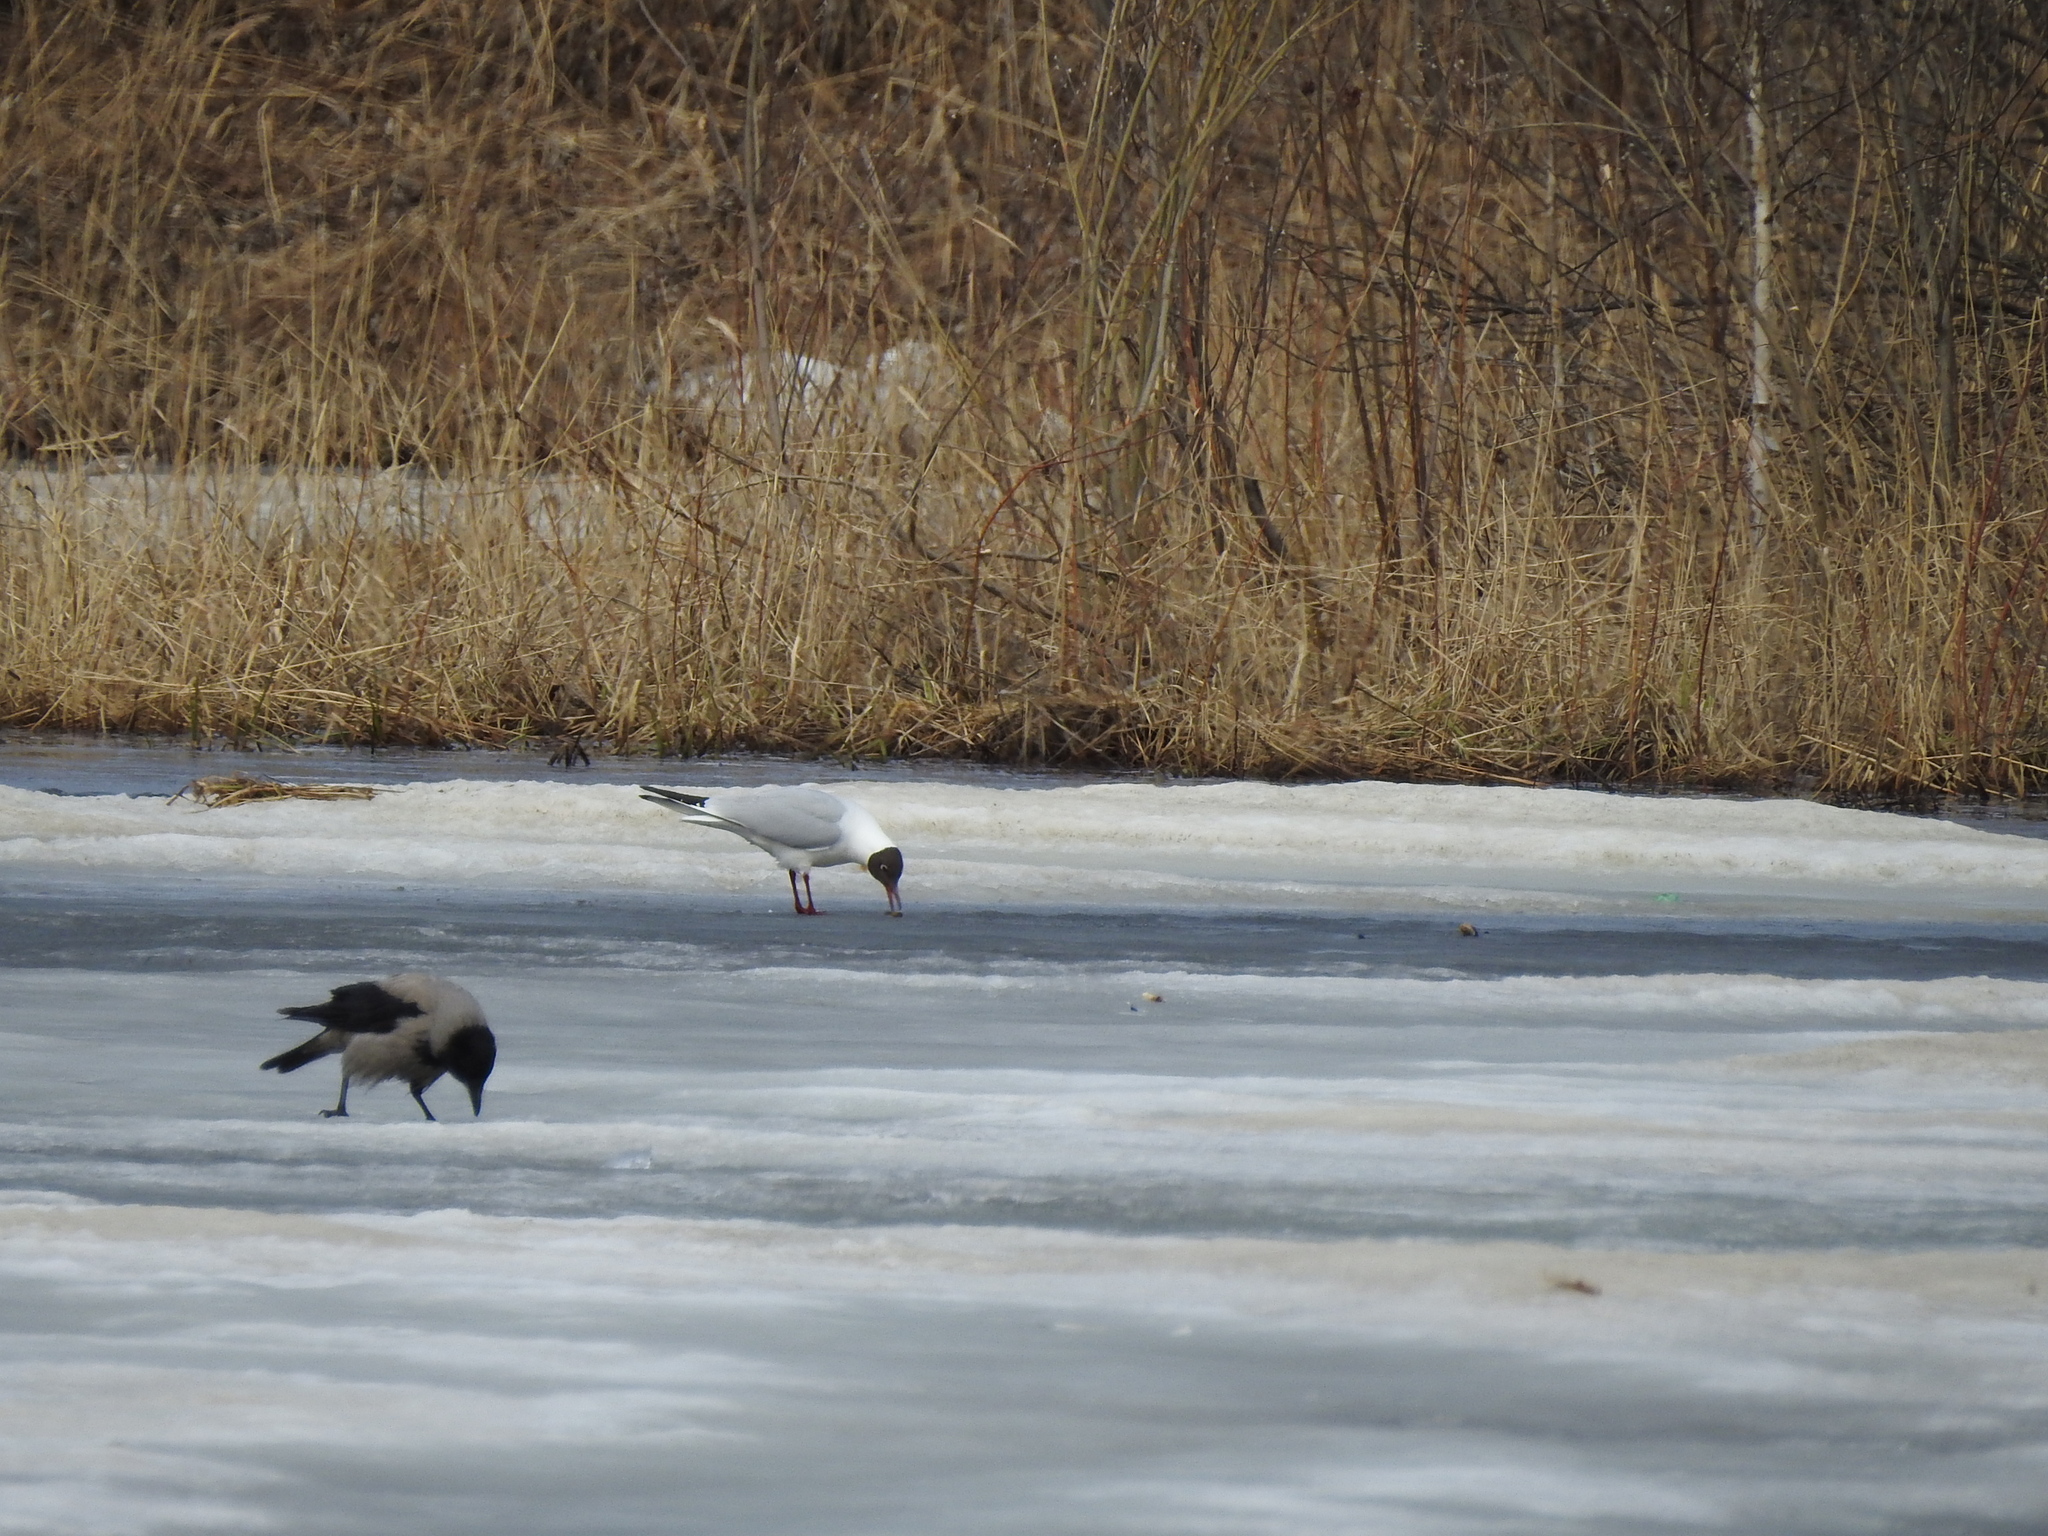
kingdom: Animalia
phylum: Chordata
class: Aves
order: Charadriiformes
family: Laridae
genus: Chroicocephalus
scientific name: Chroicocephalus ridibundus
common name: Black-headed gull
